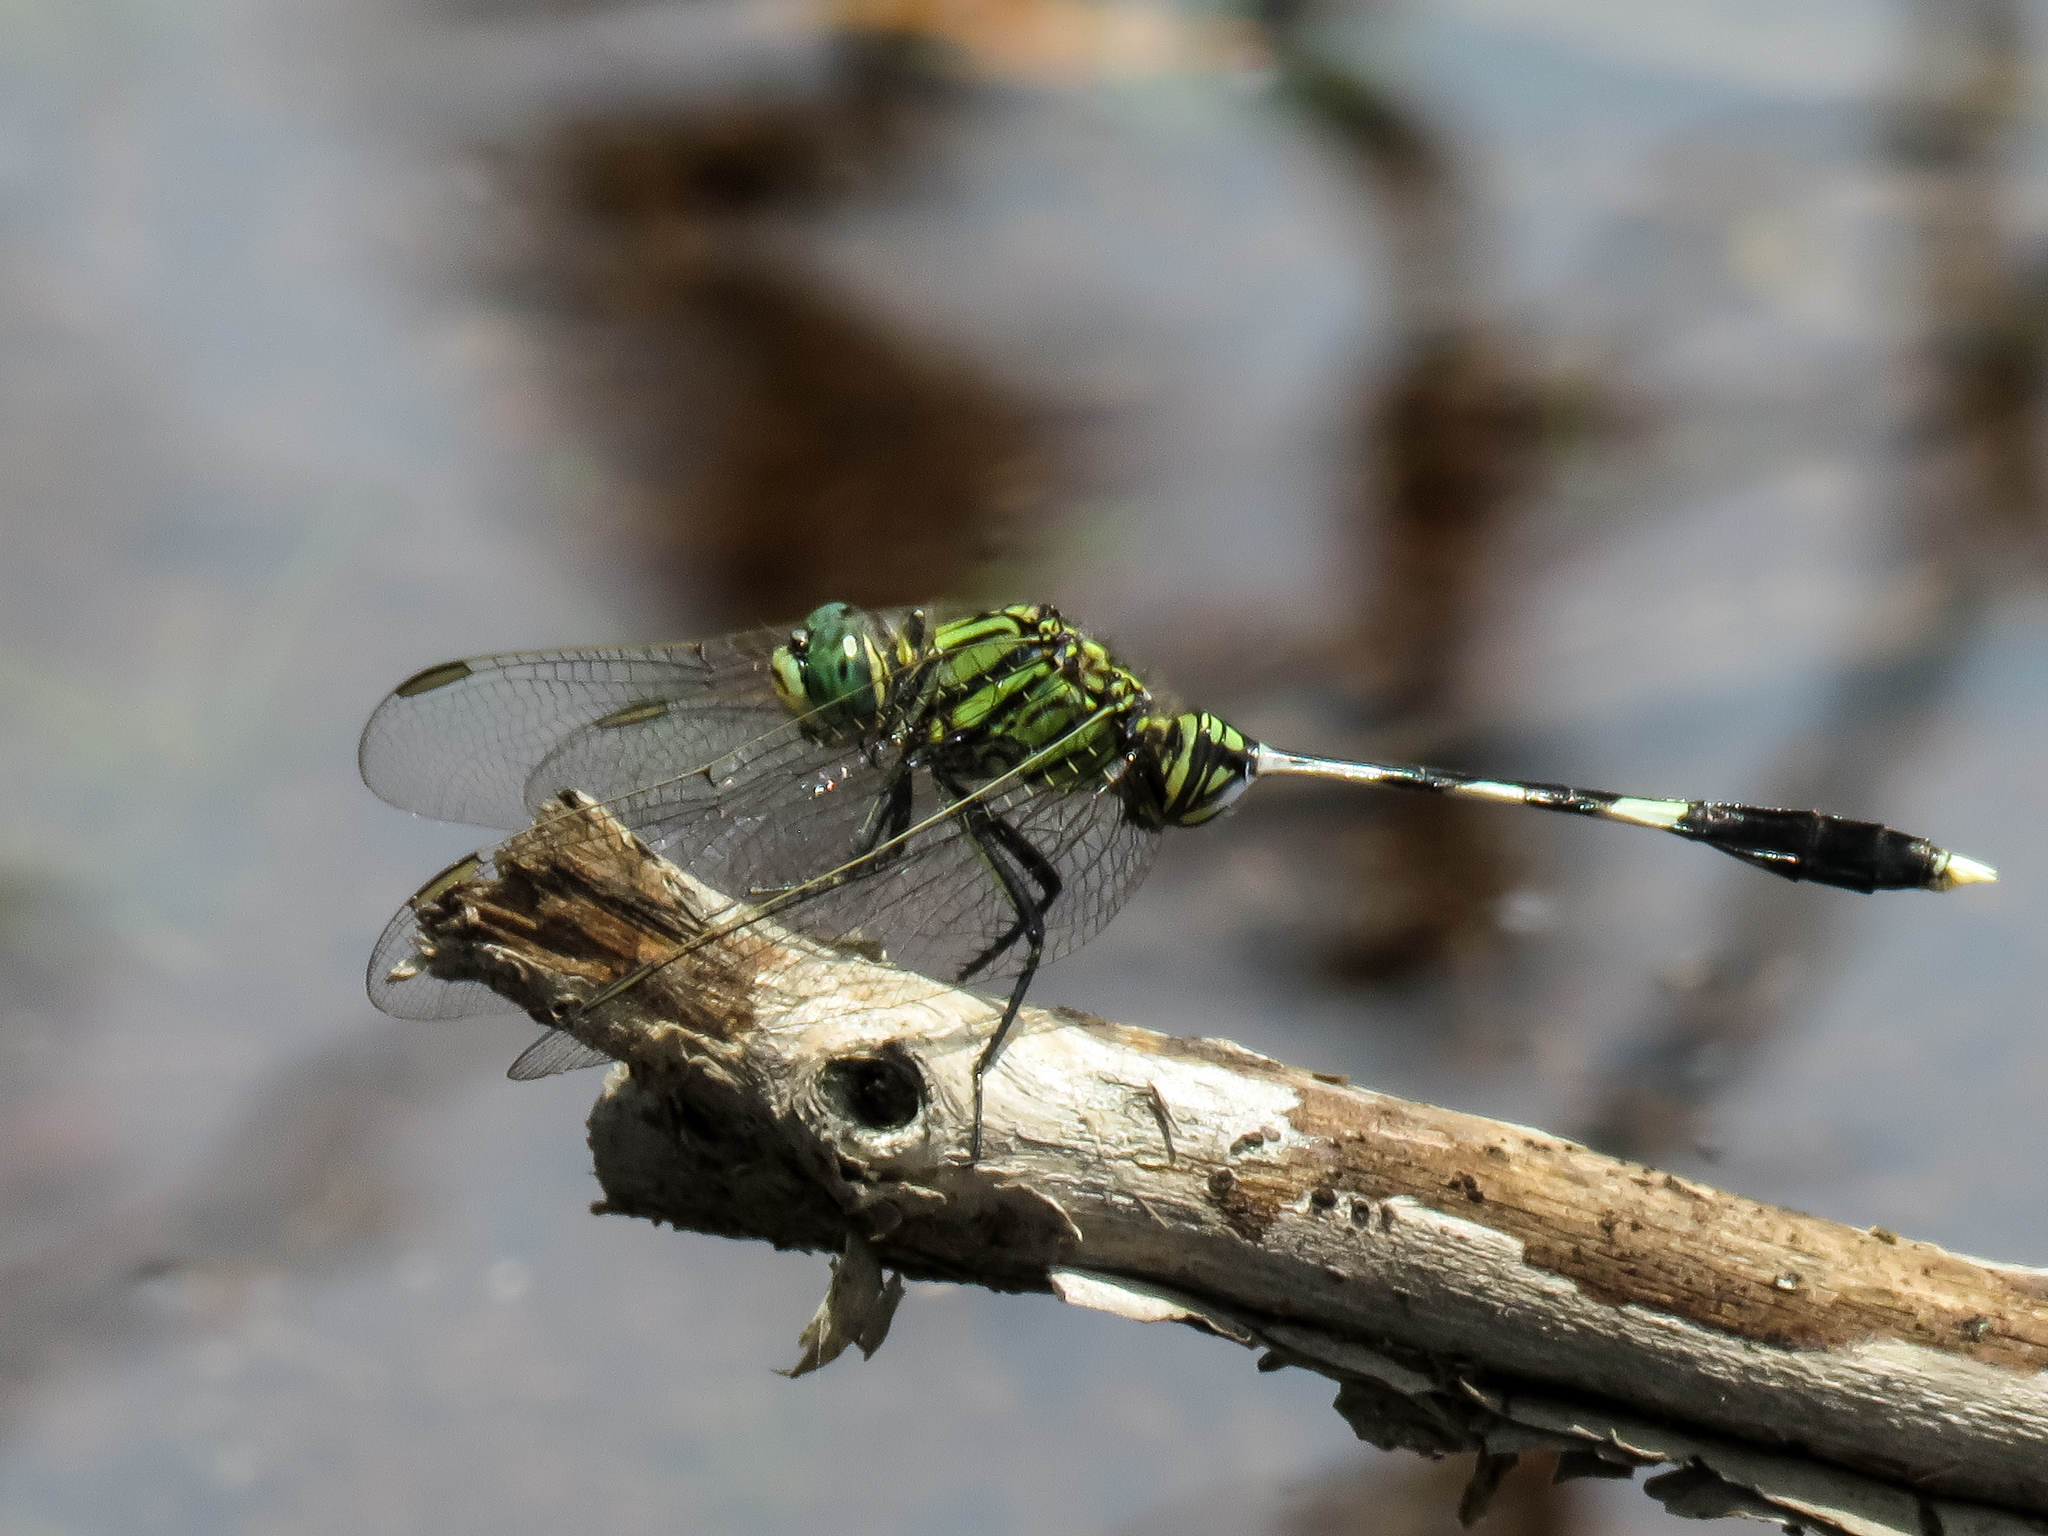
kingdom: Animalia
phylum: Arthropoda
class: Insecta
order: Odonata
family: Libellulidae
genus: Orthetrum
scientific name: Orthetrum sabina
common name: Slender skimmer
